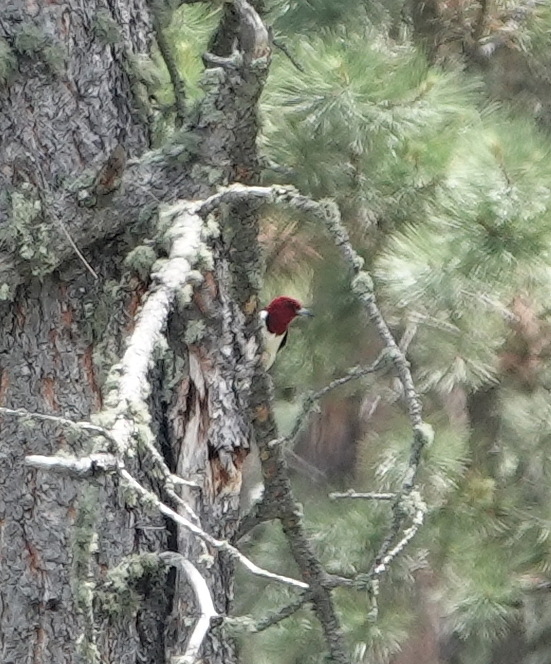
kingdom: Animalia
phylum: Chordata
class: Aves
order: Piciformes
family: Picidae
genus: Melanerpes
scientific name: Melanerpes erythrocephalus
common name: Red-headed woodpecker
